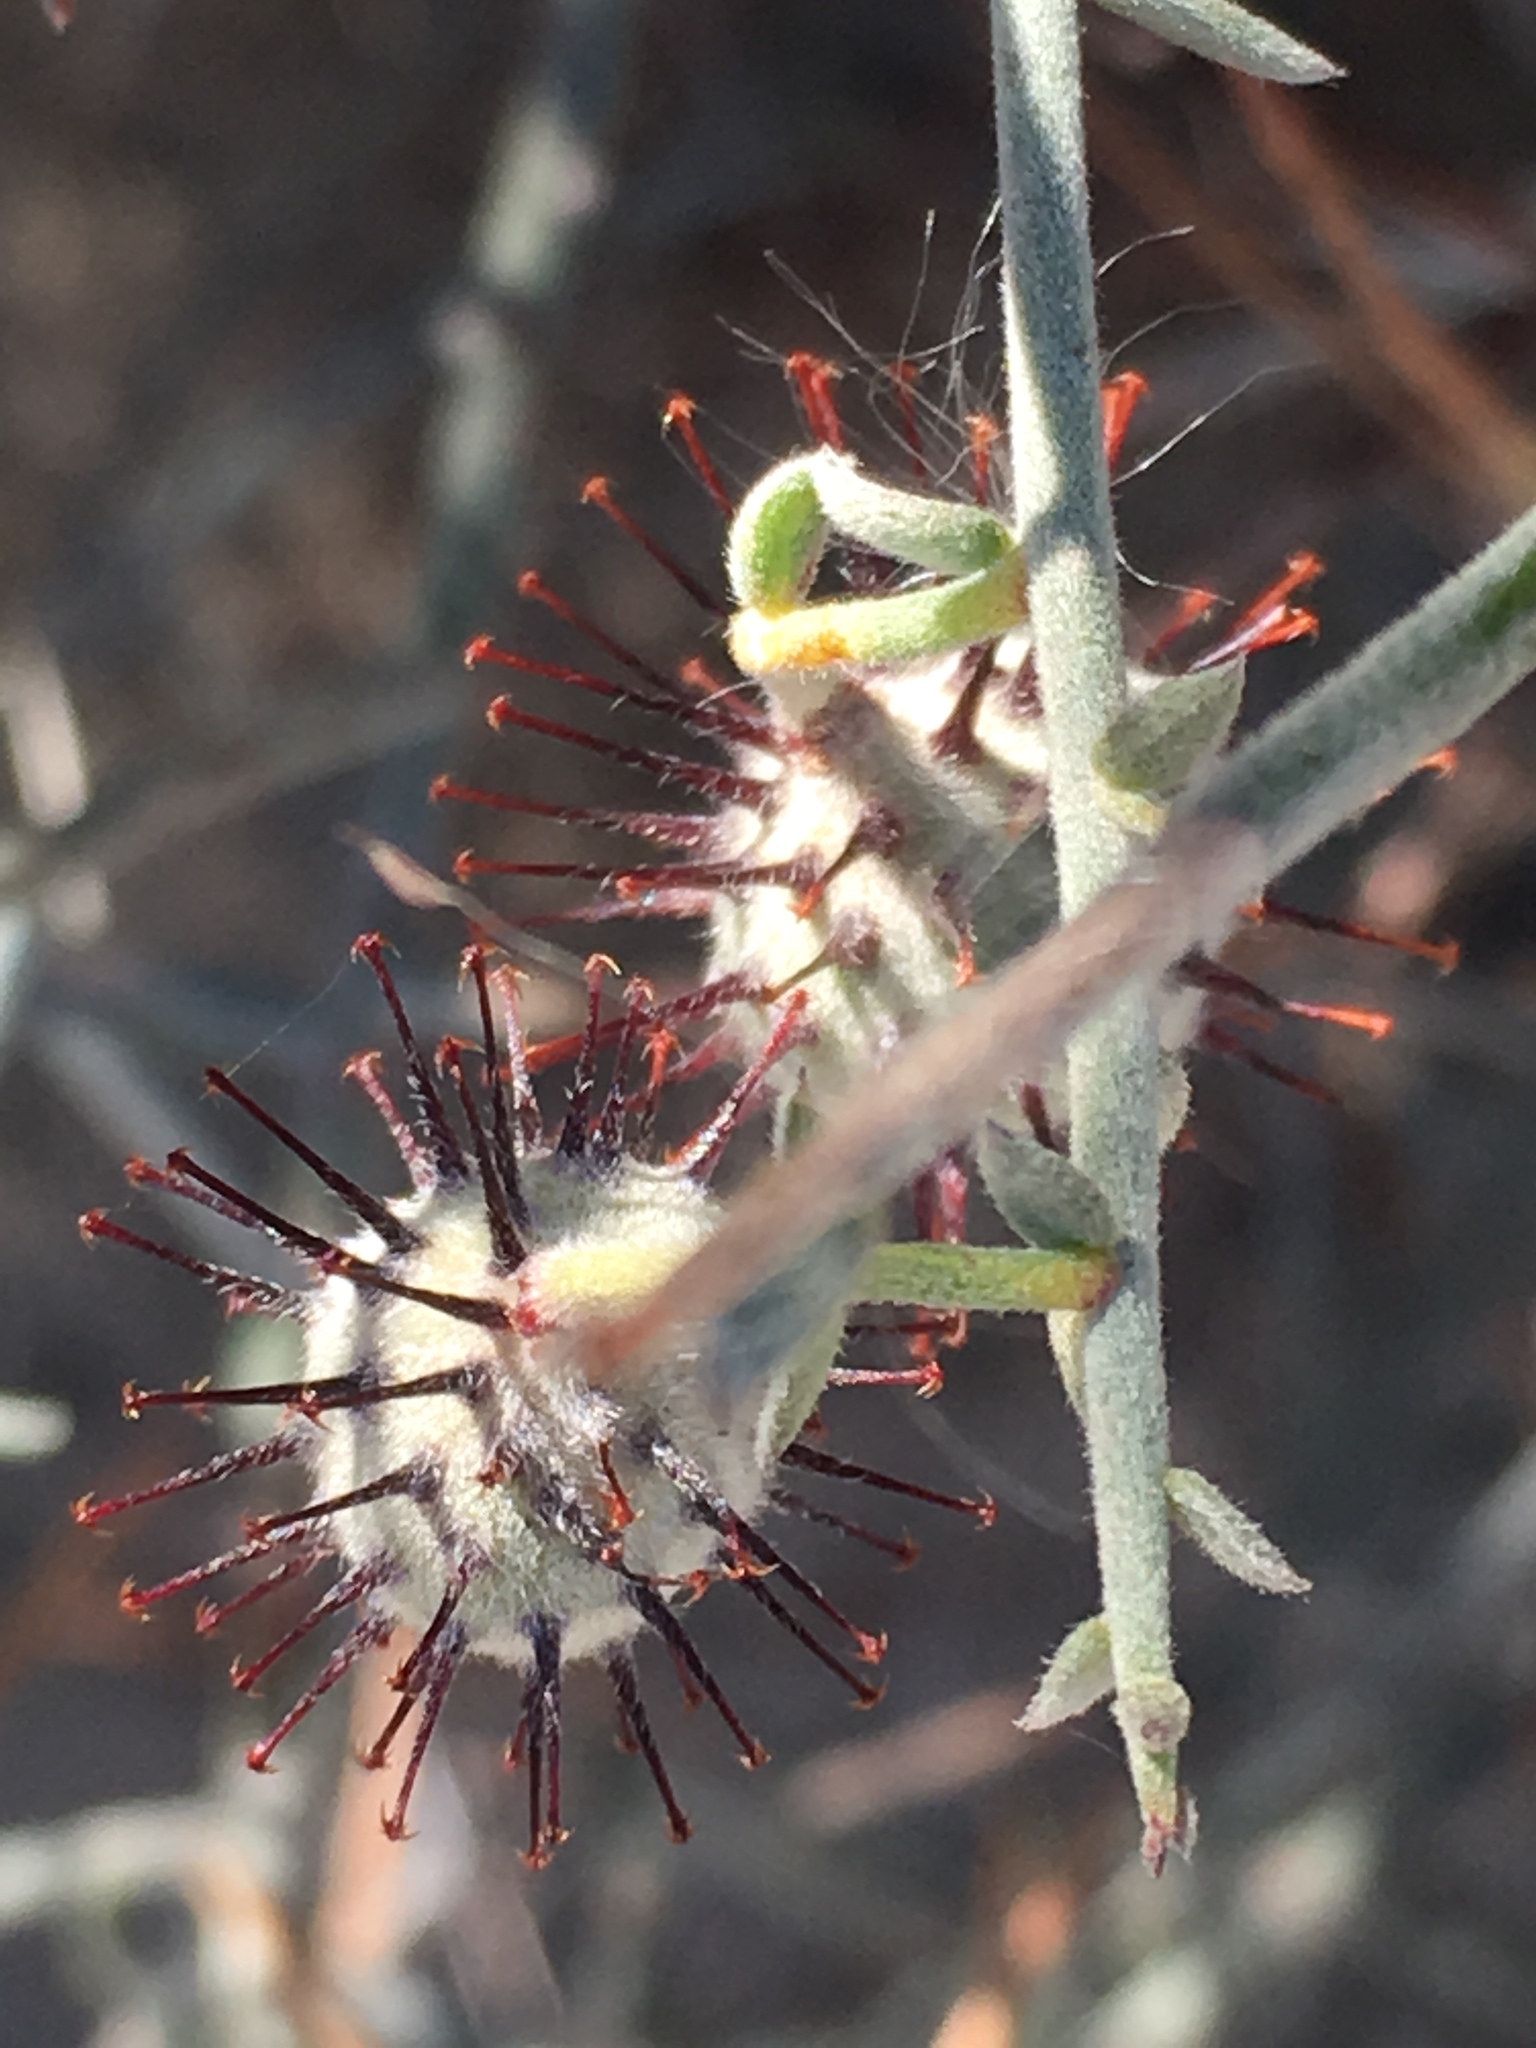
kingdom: Plantae
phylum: Tracheophyta
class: Magnoliopsida
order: Zygophyllales
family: Krameriaceae
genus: Krameria
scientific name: Krameria bicolor
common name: White ratany
